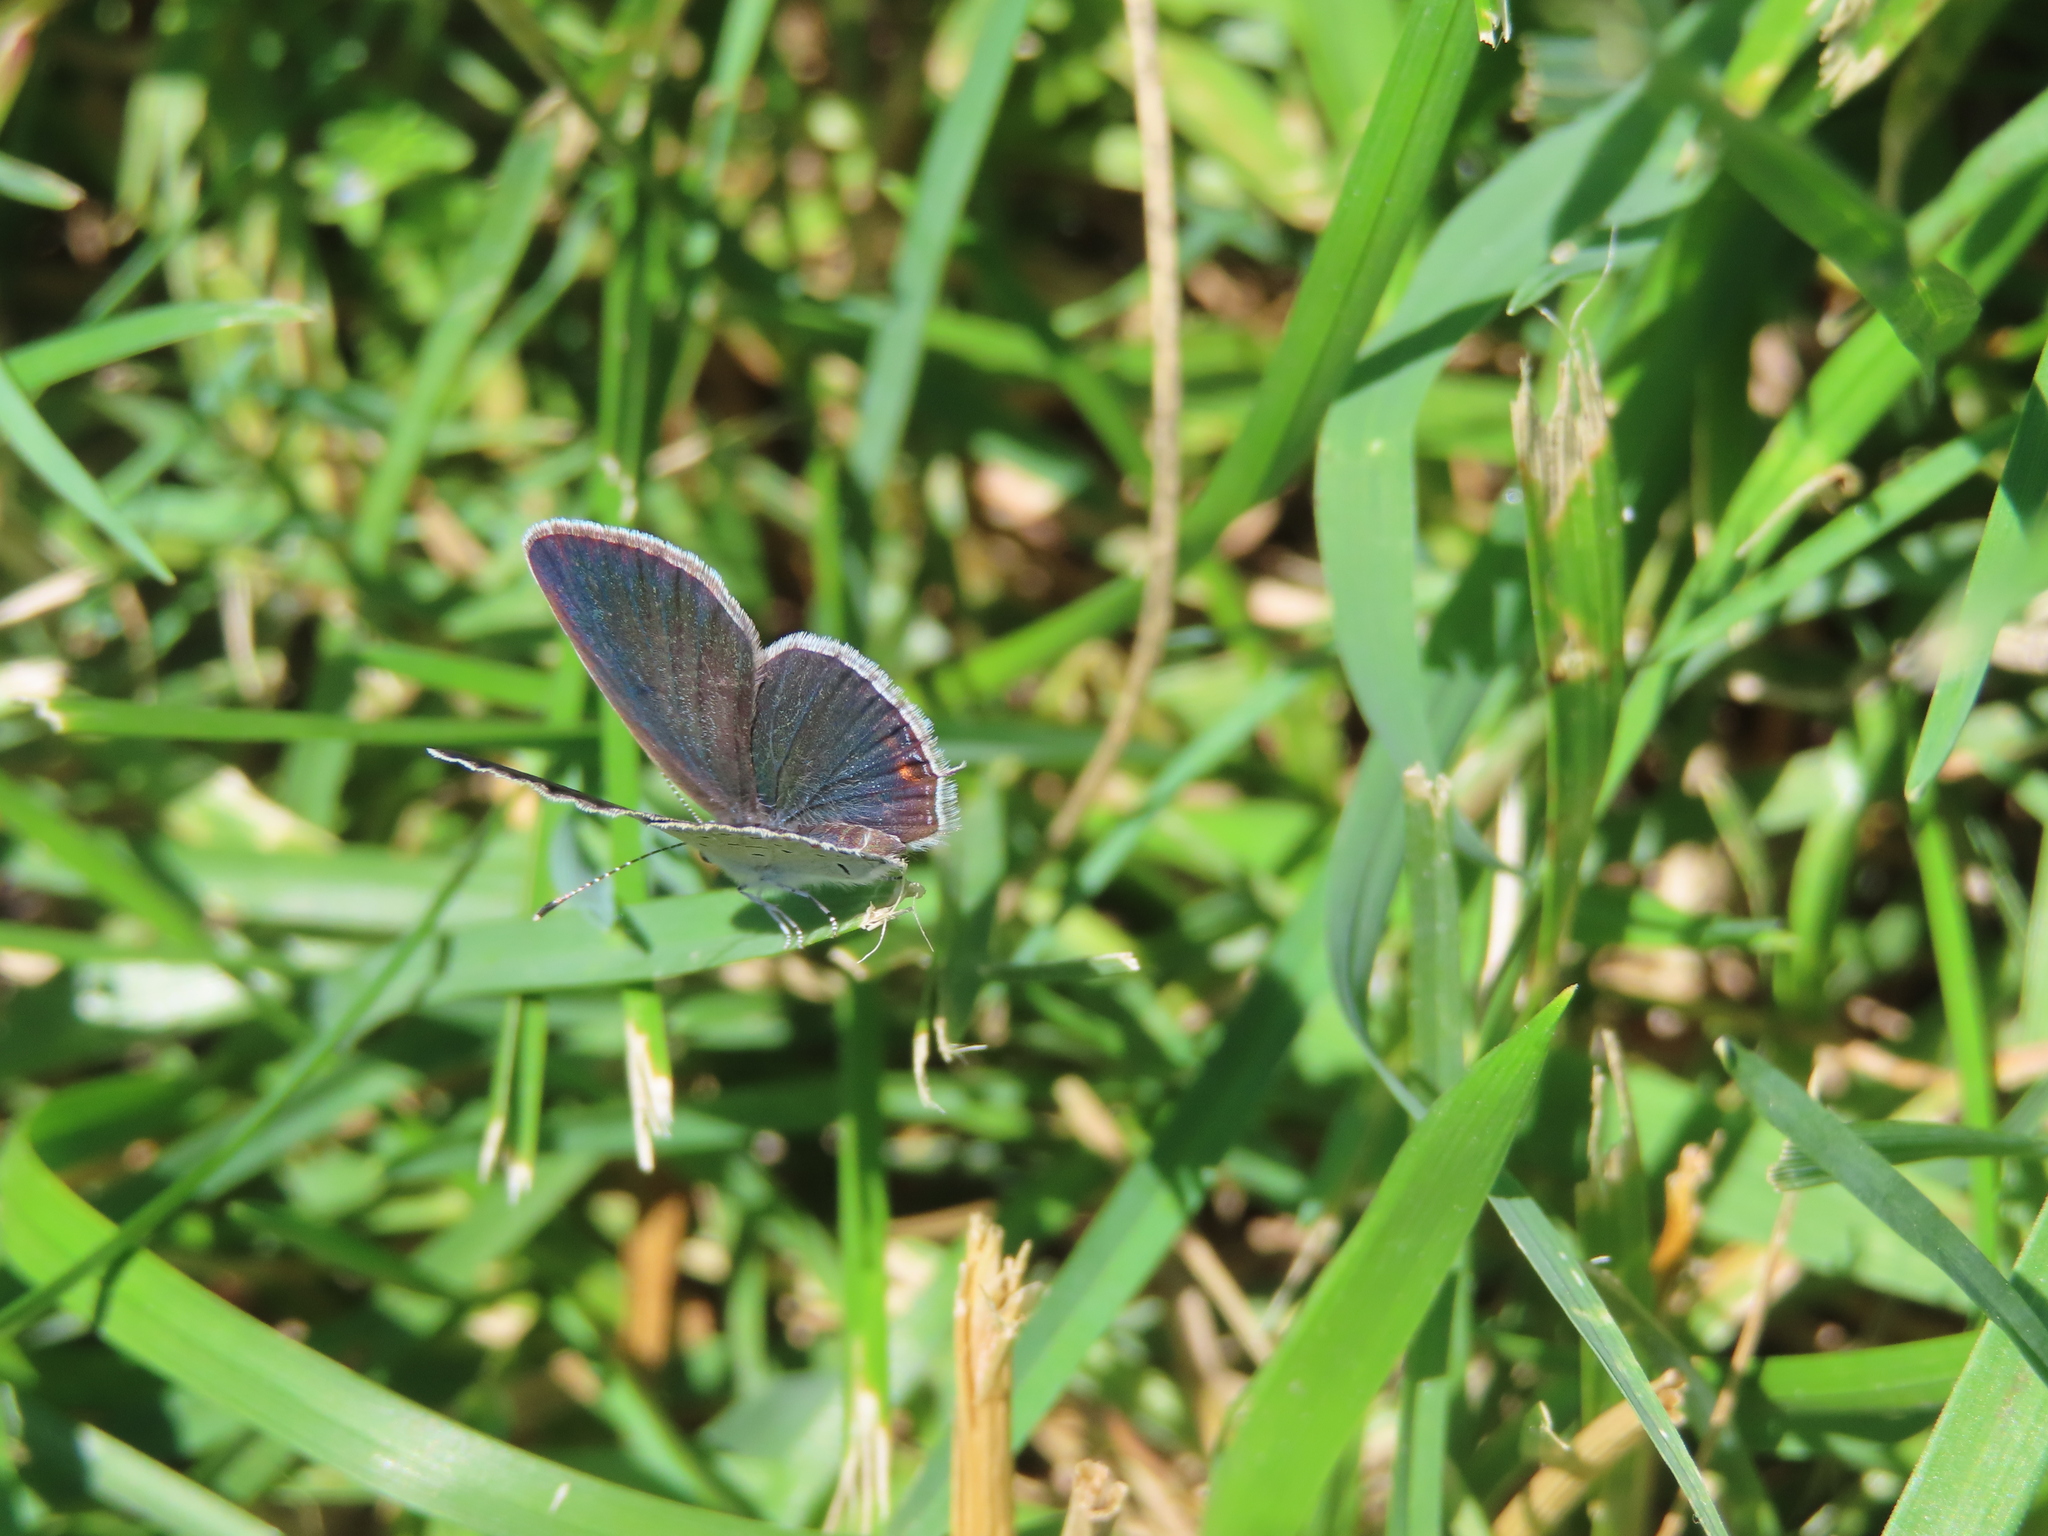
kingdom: Animalia
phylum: Arthropoda
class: Insecta
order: Lepidoptera
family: Lycaenidae
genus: Elkalyce
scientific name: Elkalyce comyntas
